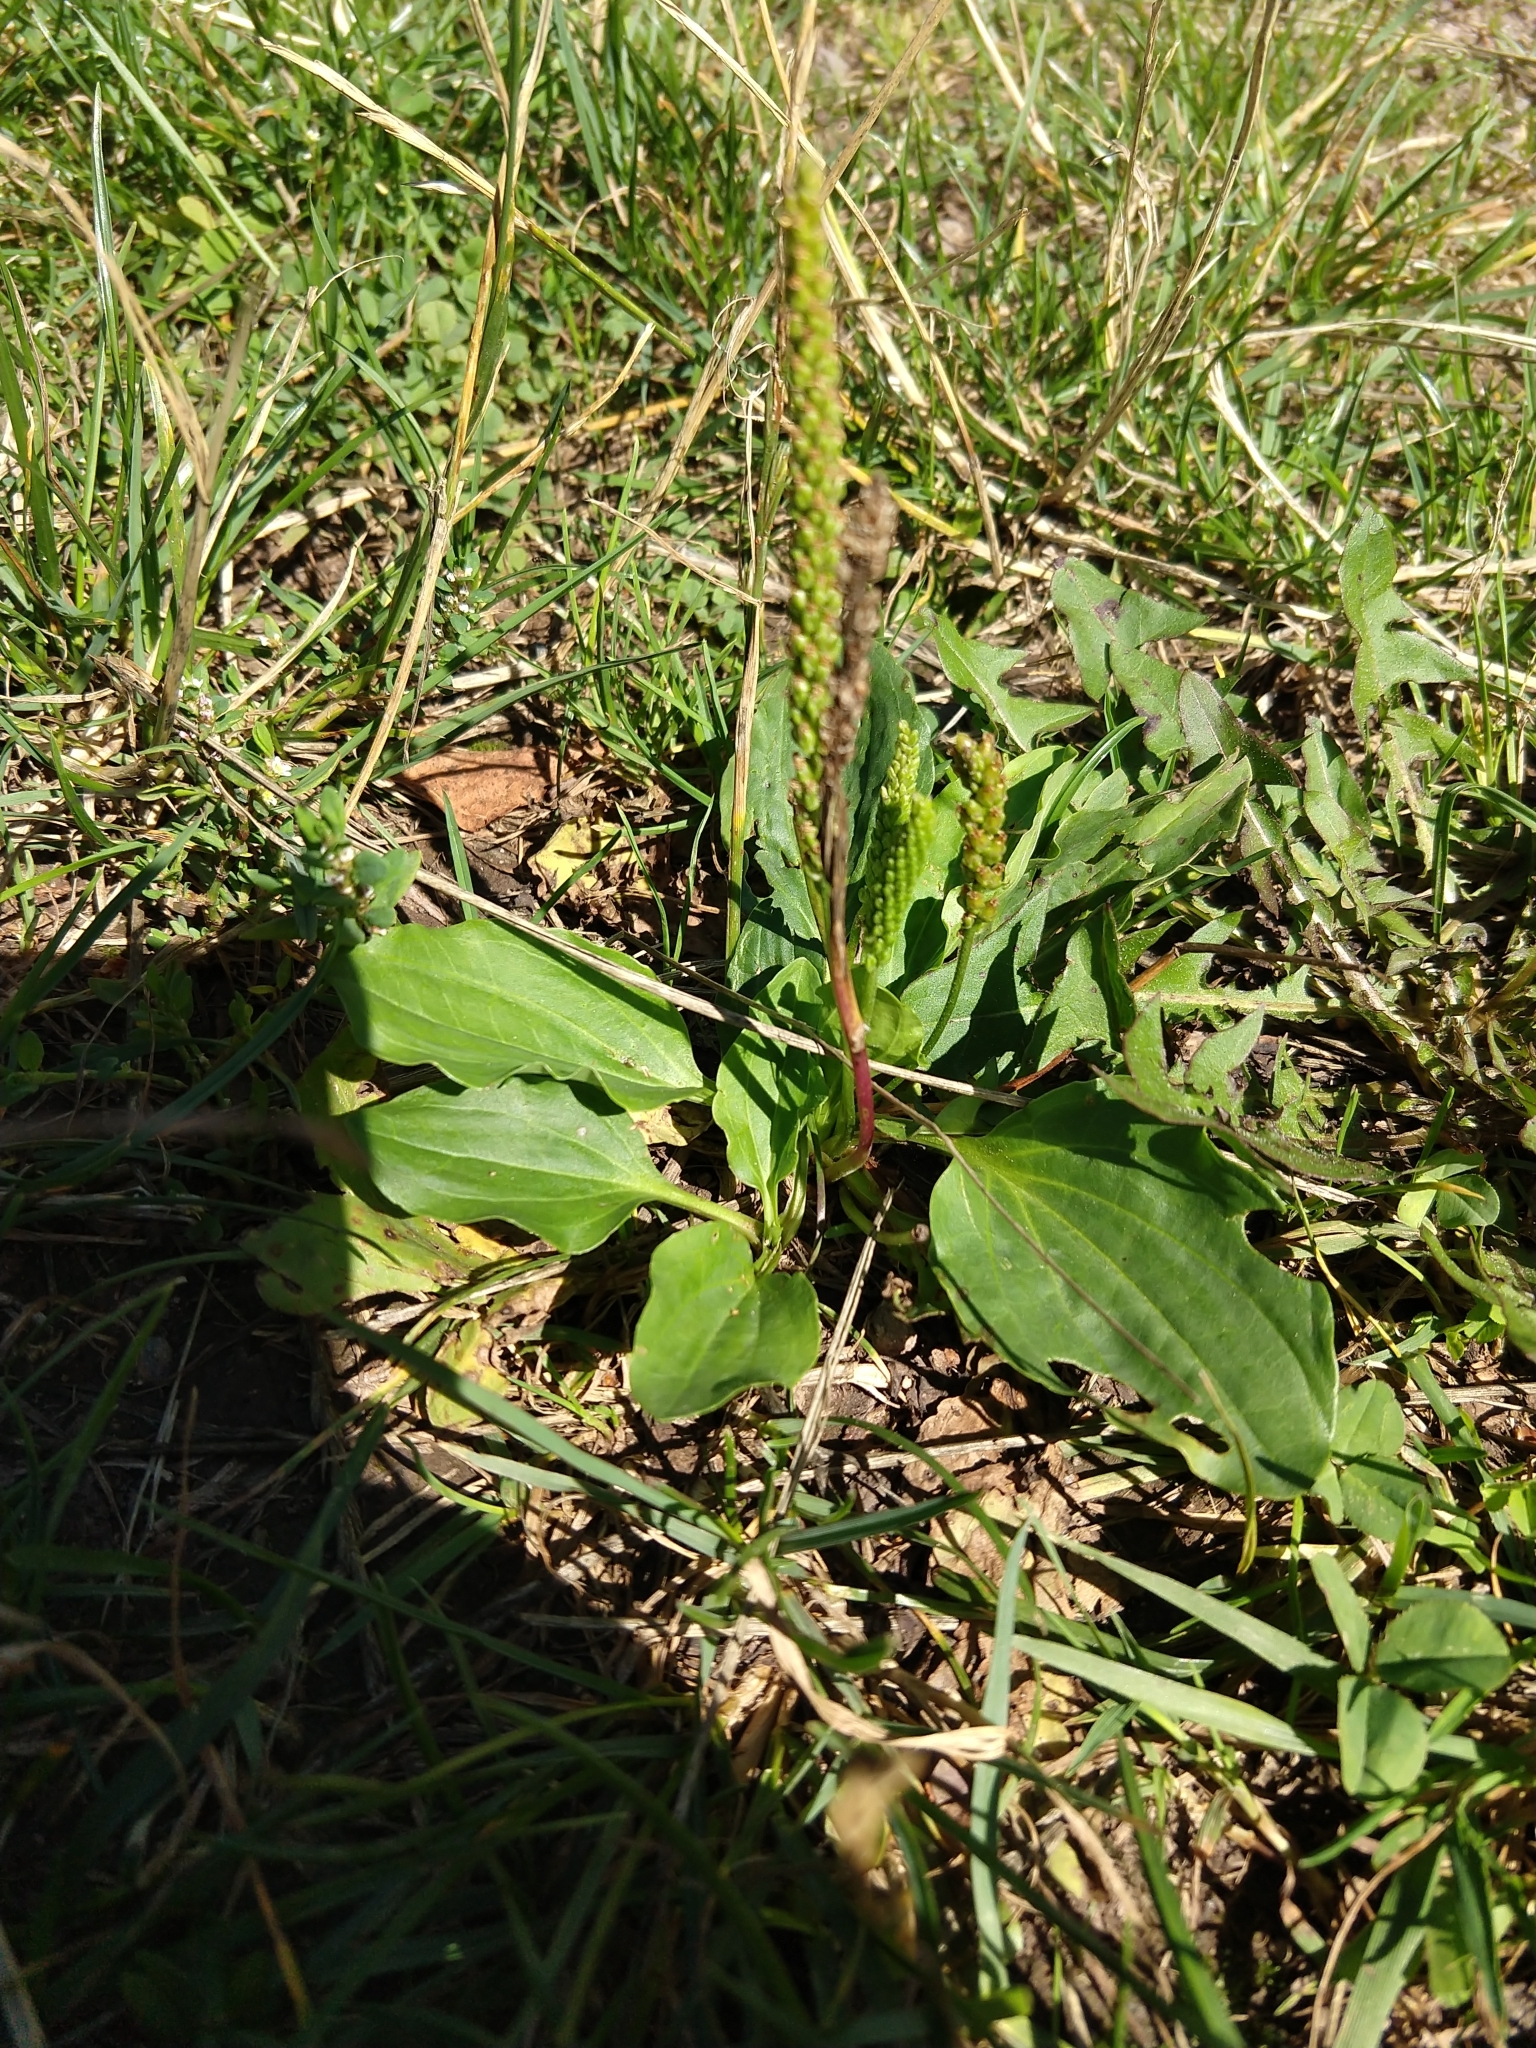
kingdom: Plantae
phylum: Tracheophyta
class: Magnoliopsida
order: Lamiales
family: Plantaginaceae
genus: Plantago
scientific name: Plantago major
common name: Common plantain
